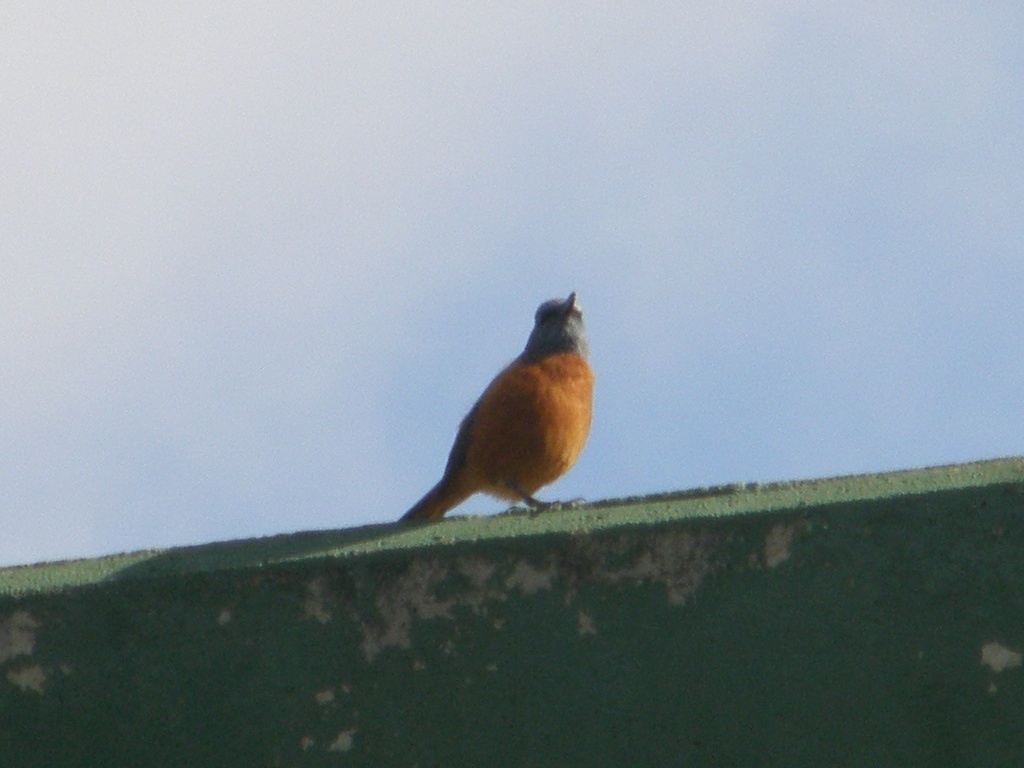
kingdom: Animalia
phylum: Chordata
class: Aves
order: Passeriformes
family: Muscicapidae
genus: Monticola
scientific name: Monticola rupestris
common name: Cape rock thrush
